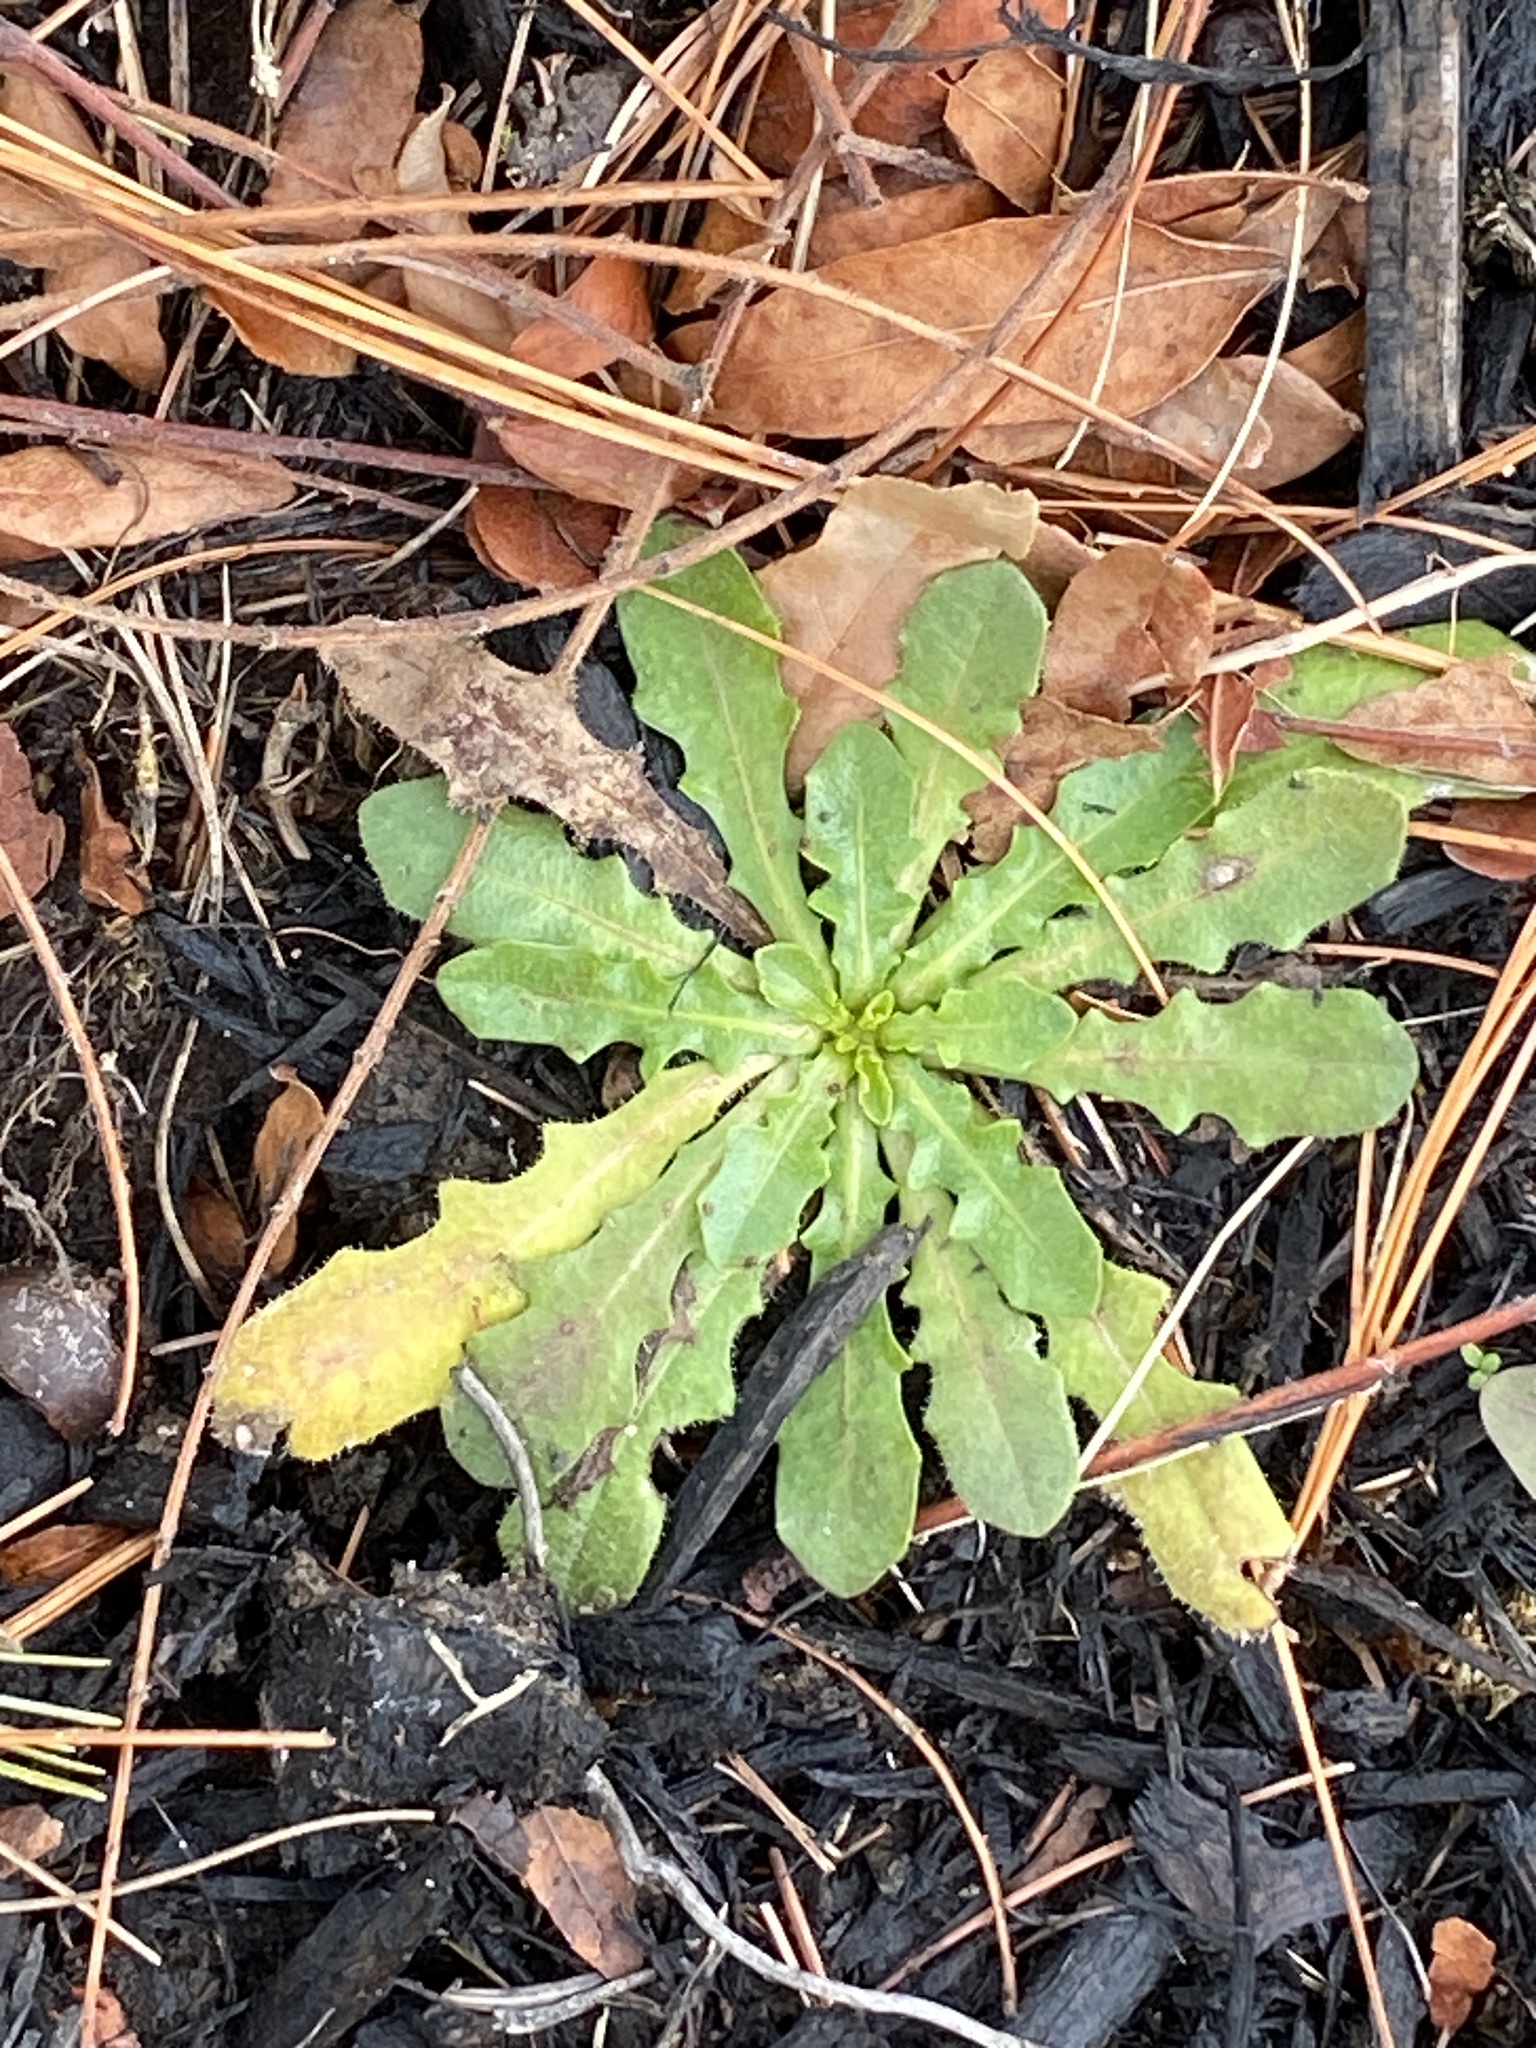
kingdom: Plantae
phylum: Tracheophyta
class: Magnoliopsida
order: Asterales
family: Asteraceae
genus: Hypochaeris
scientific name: Hypochaeris radicata
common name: Flatweed
